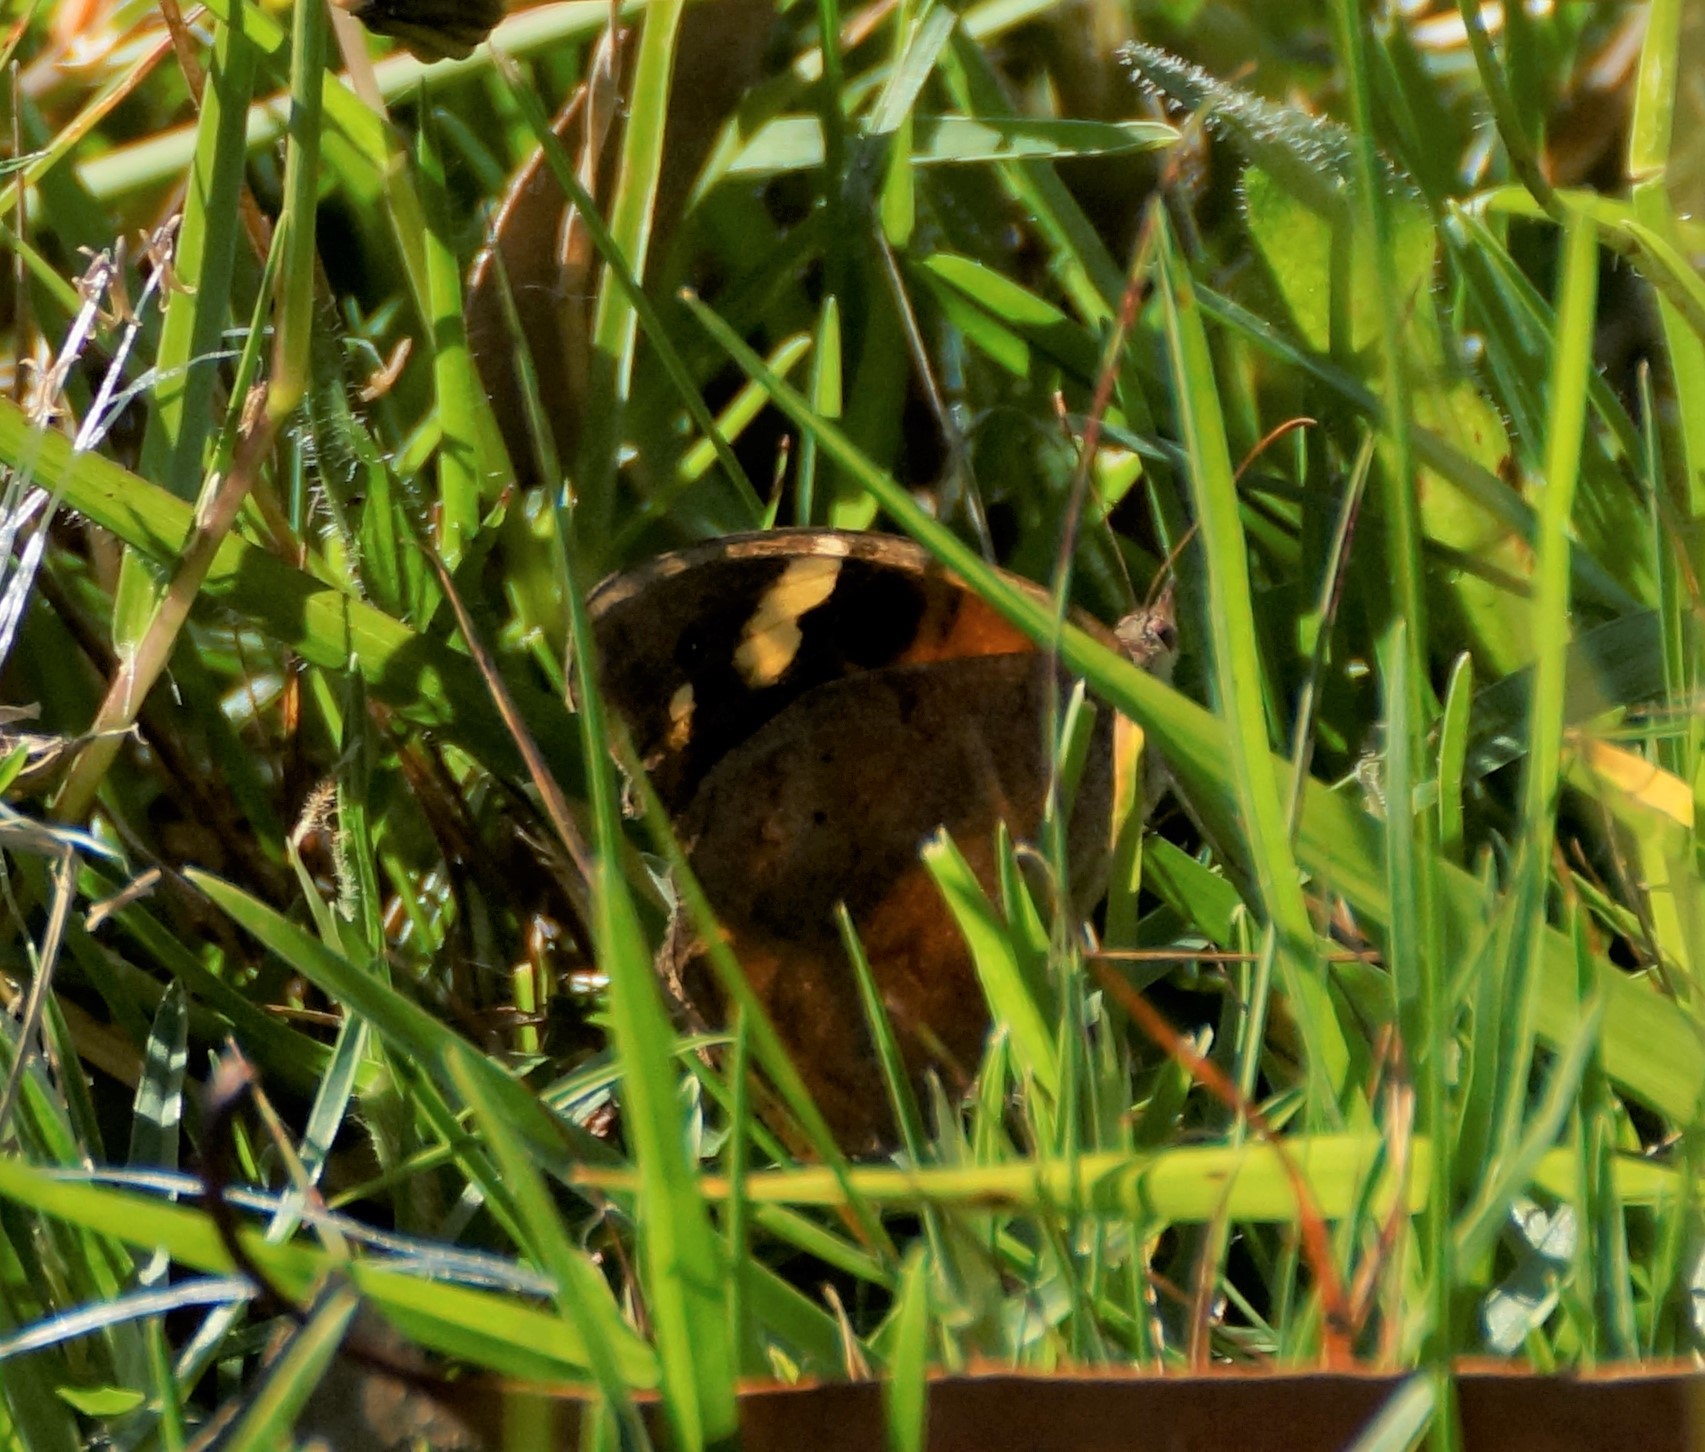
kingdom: Animalia
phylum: Arthropoda
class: Insecta
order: Lepidoptera
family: Nymphalidae
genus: Heteronympha
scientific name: Heteronympha merope
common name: Common brown
